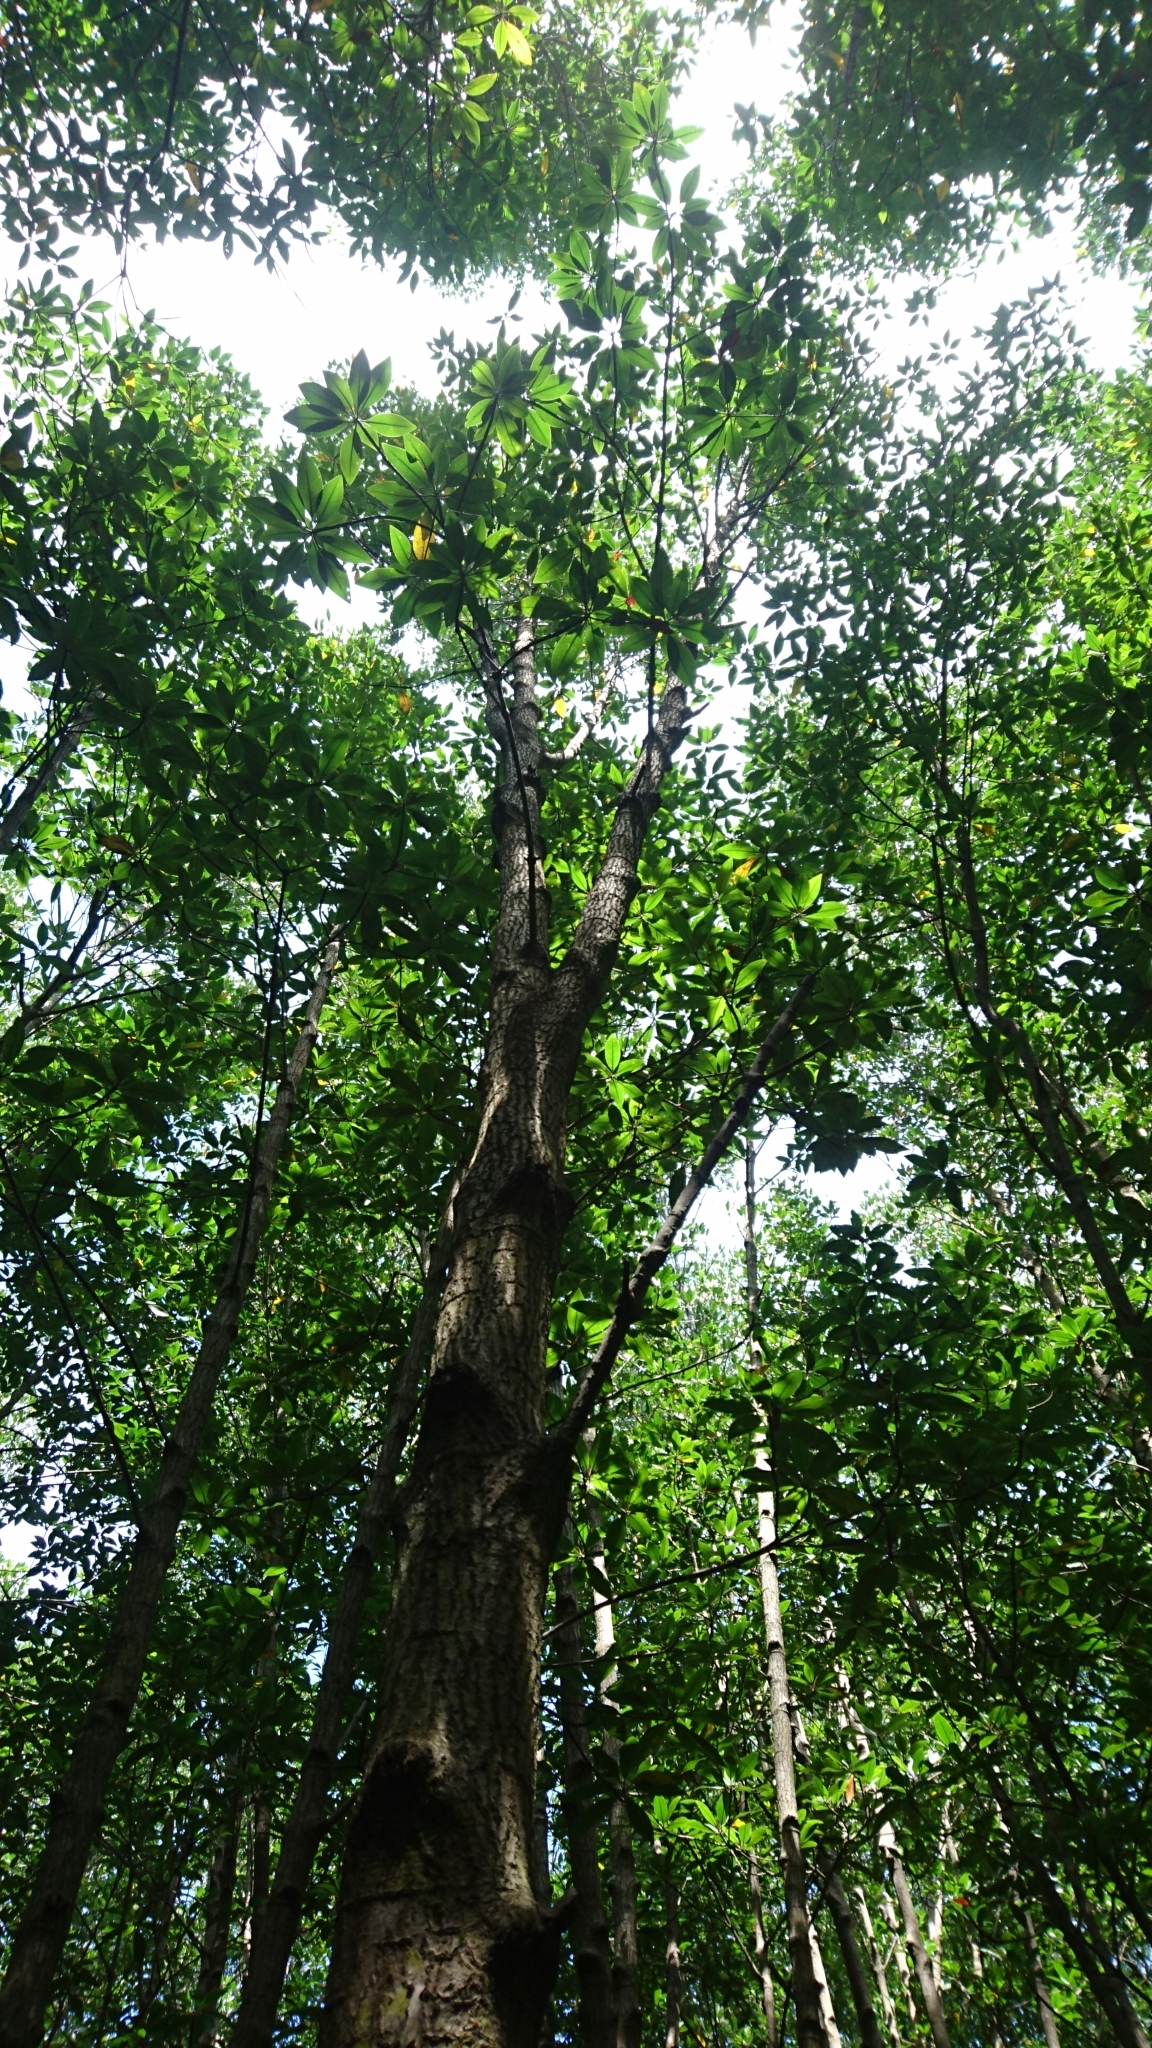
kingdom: Plantae
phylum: Tracheophyta
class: Magnoliopsida
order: Malpighiales
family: Rhizophoraceae
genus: Rhizophora
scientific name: Rhizophora apiculata
